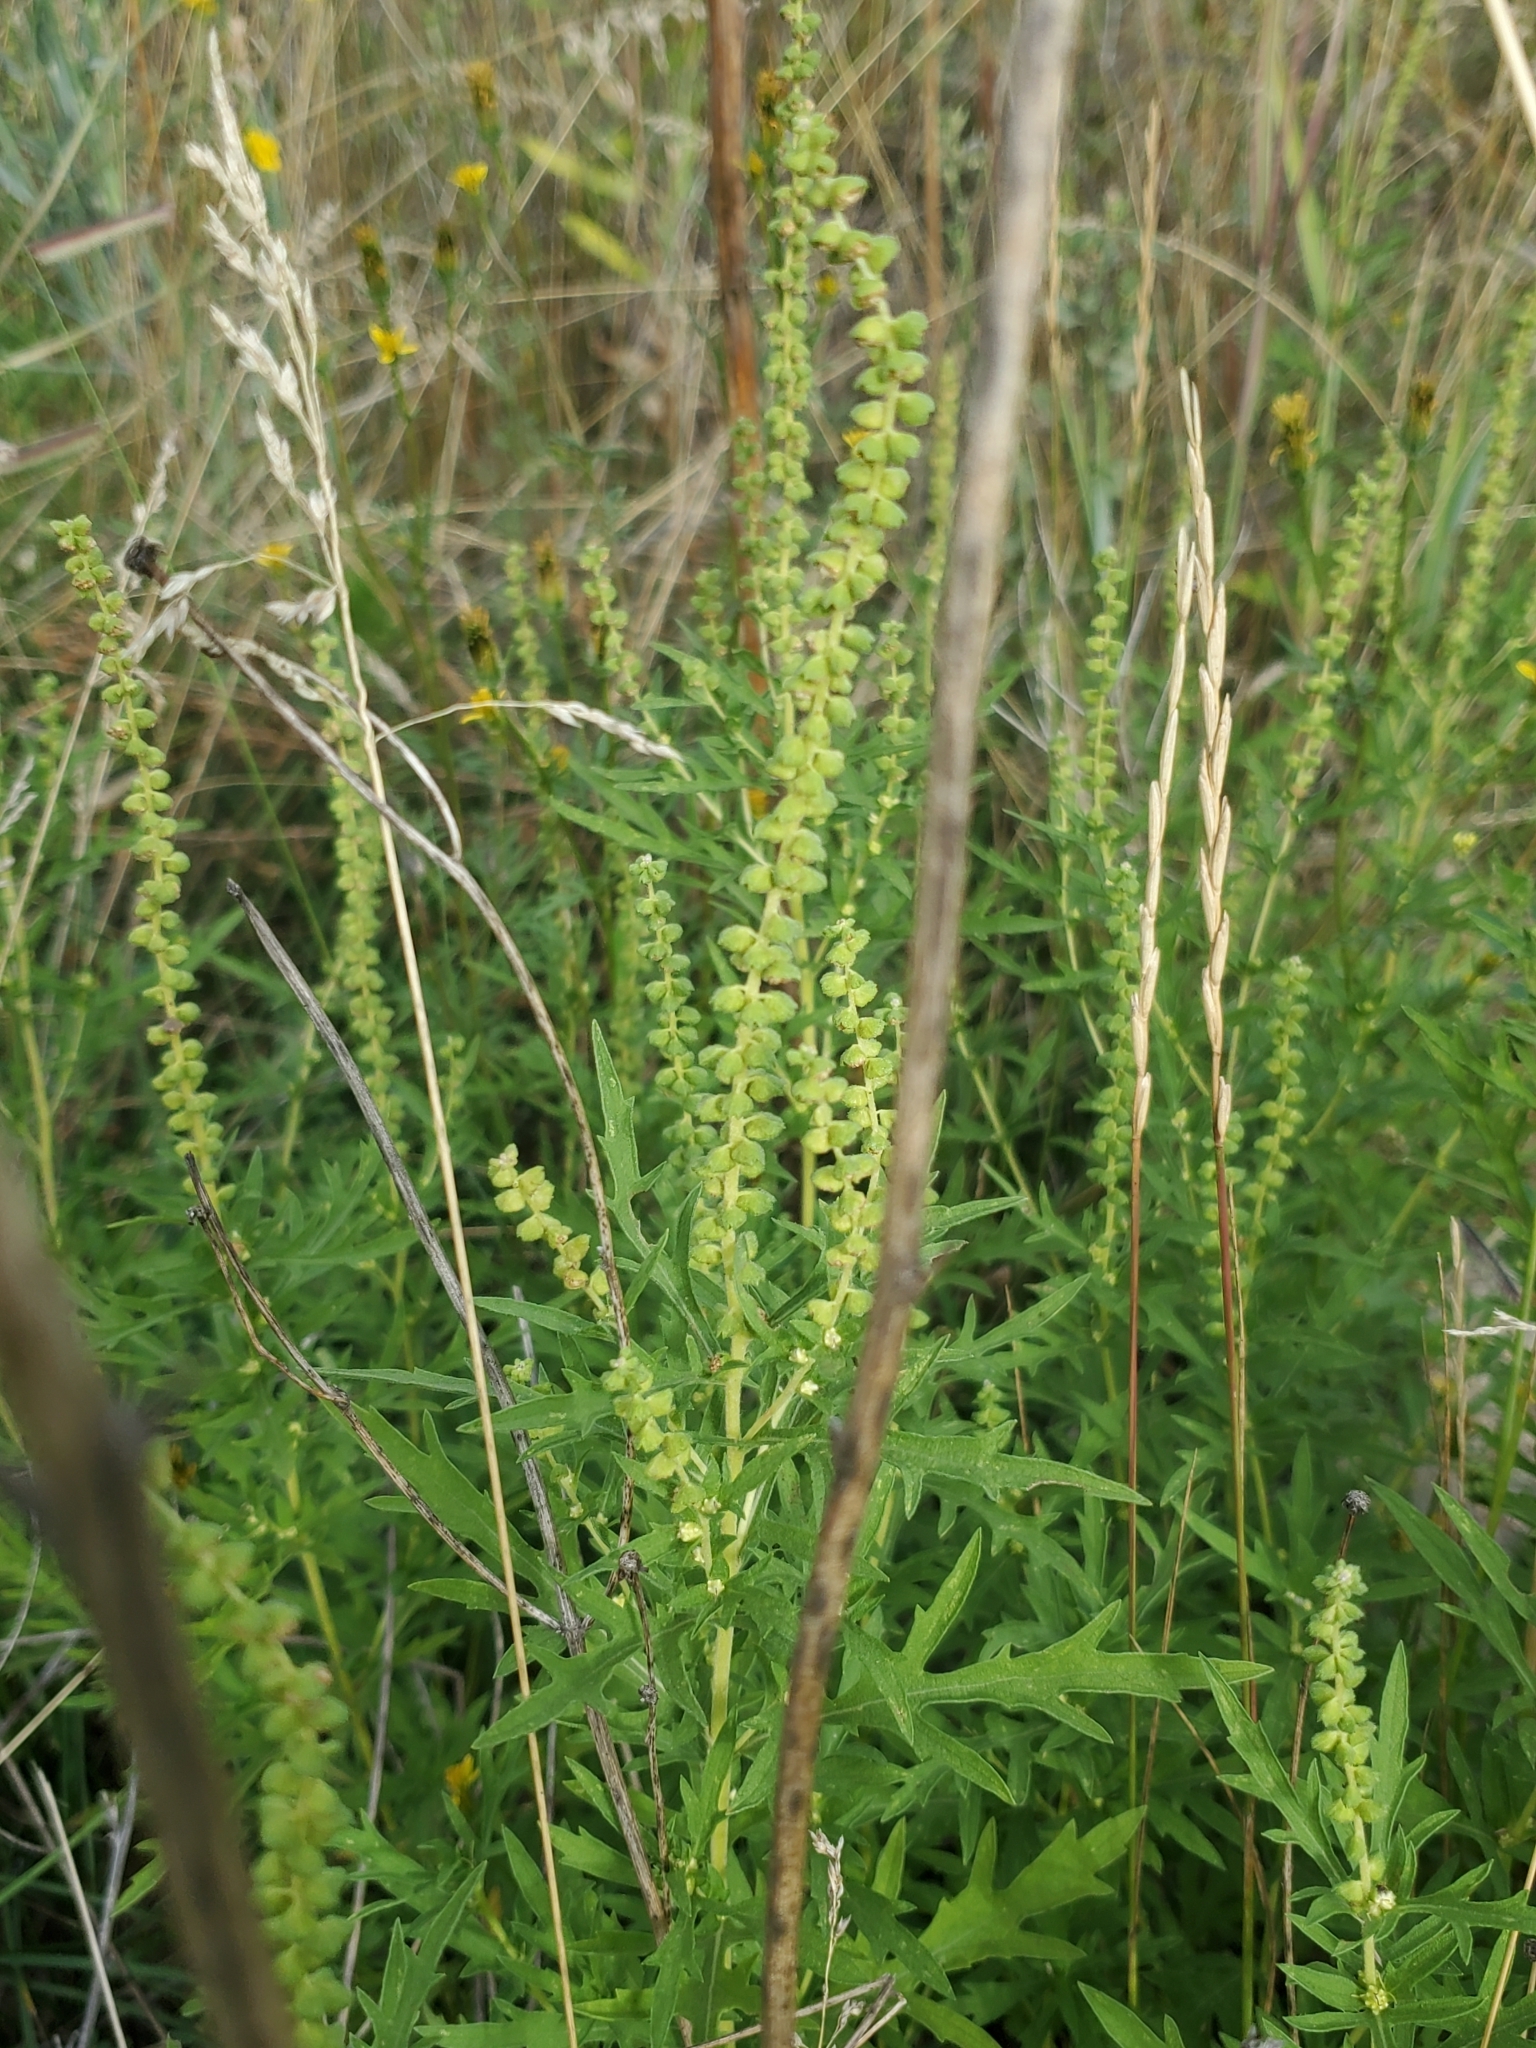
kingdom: Plantae
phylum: Tracheophyta
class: Magnoliopsida
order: Asterales
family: Asteraceae
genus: Ambrosia
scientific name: Ambrosia psilostachya
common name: Perennial ragweed
